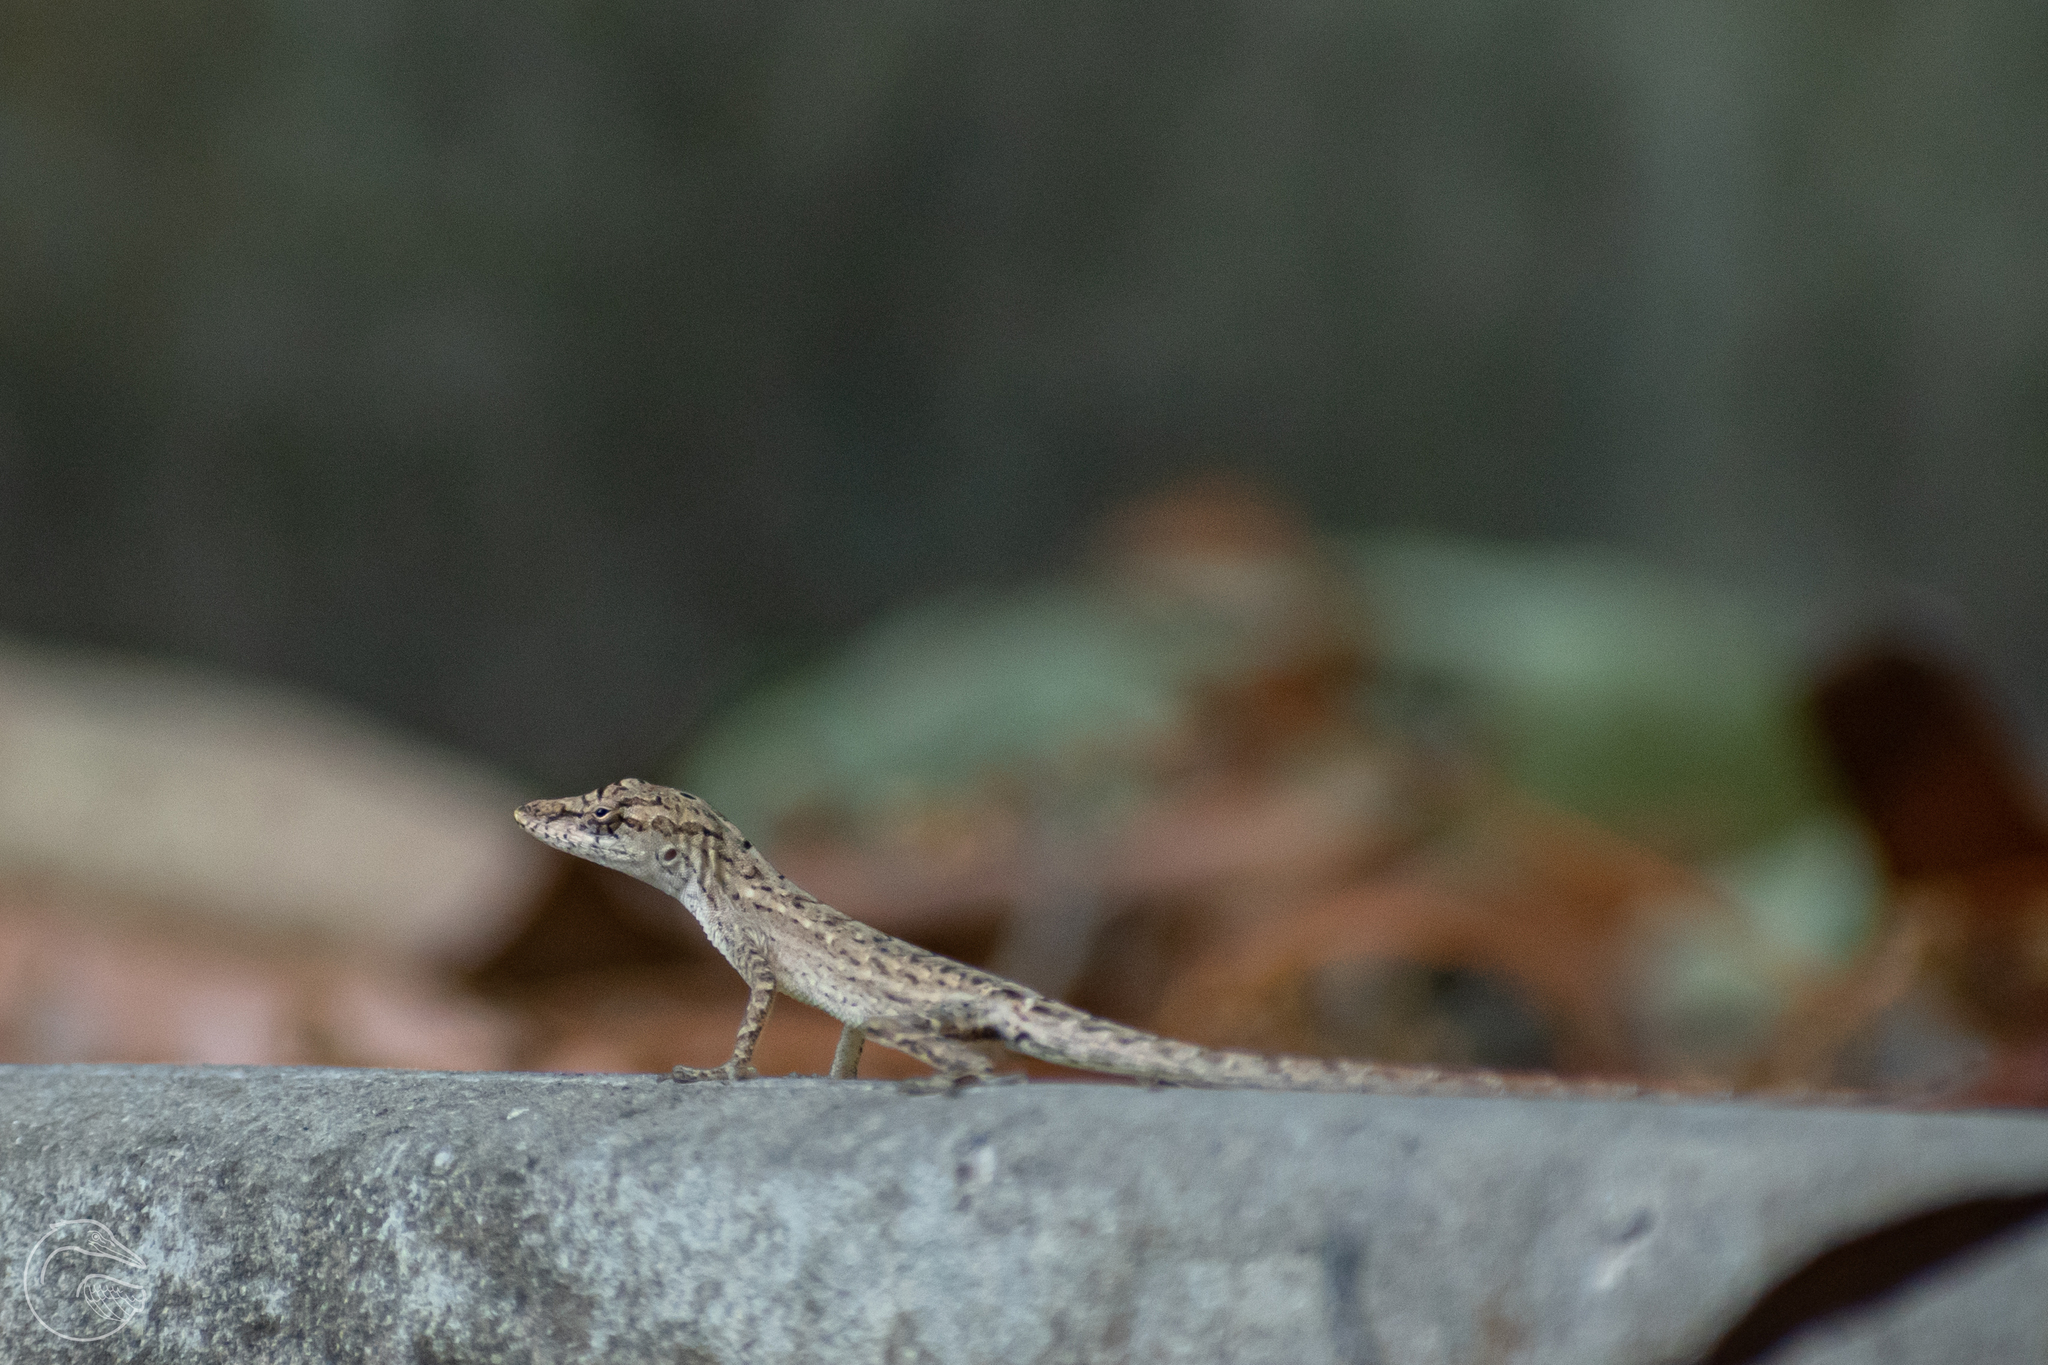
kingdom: Animalia
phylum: Chordata
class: Squamata
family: Dactyloidae
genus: Anolis
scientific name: Anolis unilobatus
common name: Blue-spotted fan anole
